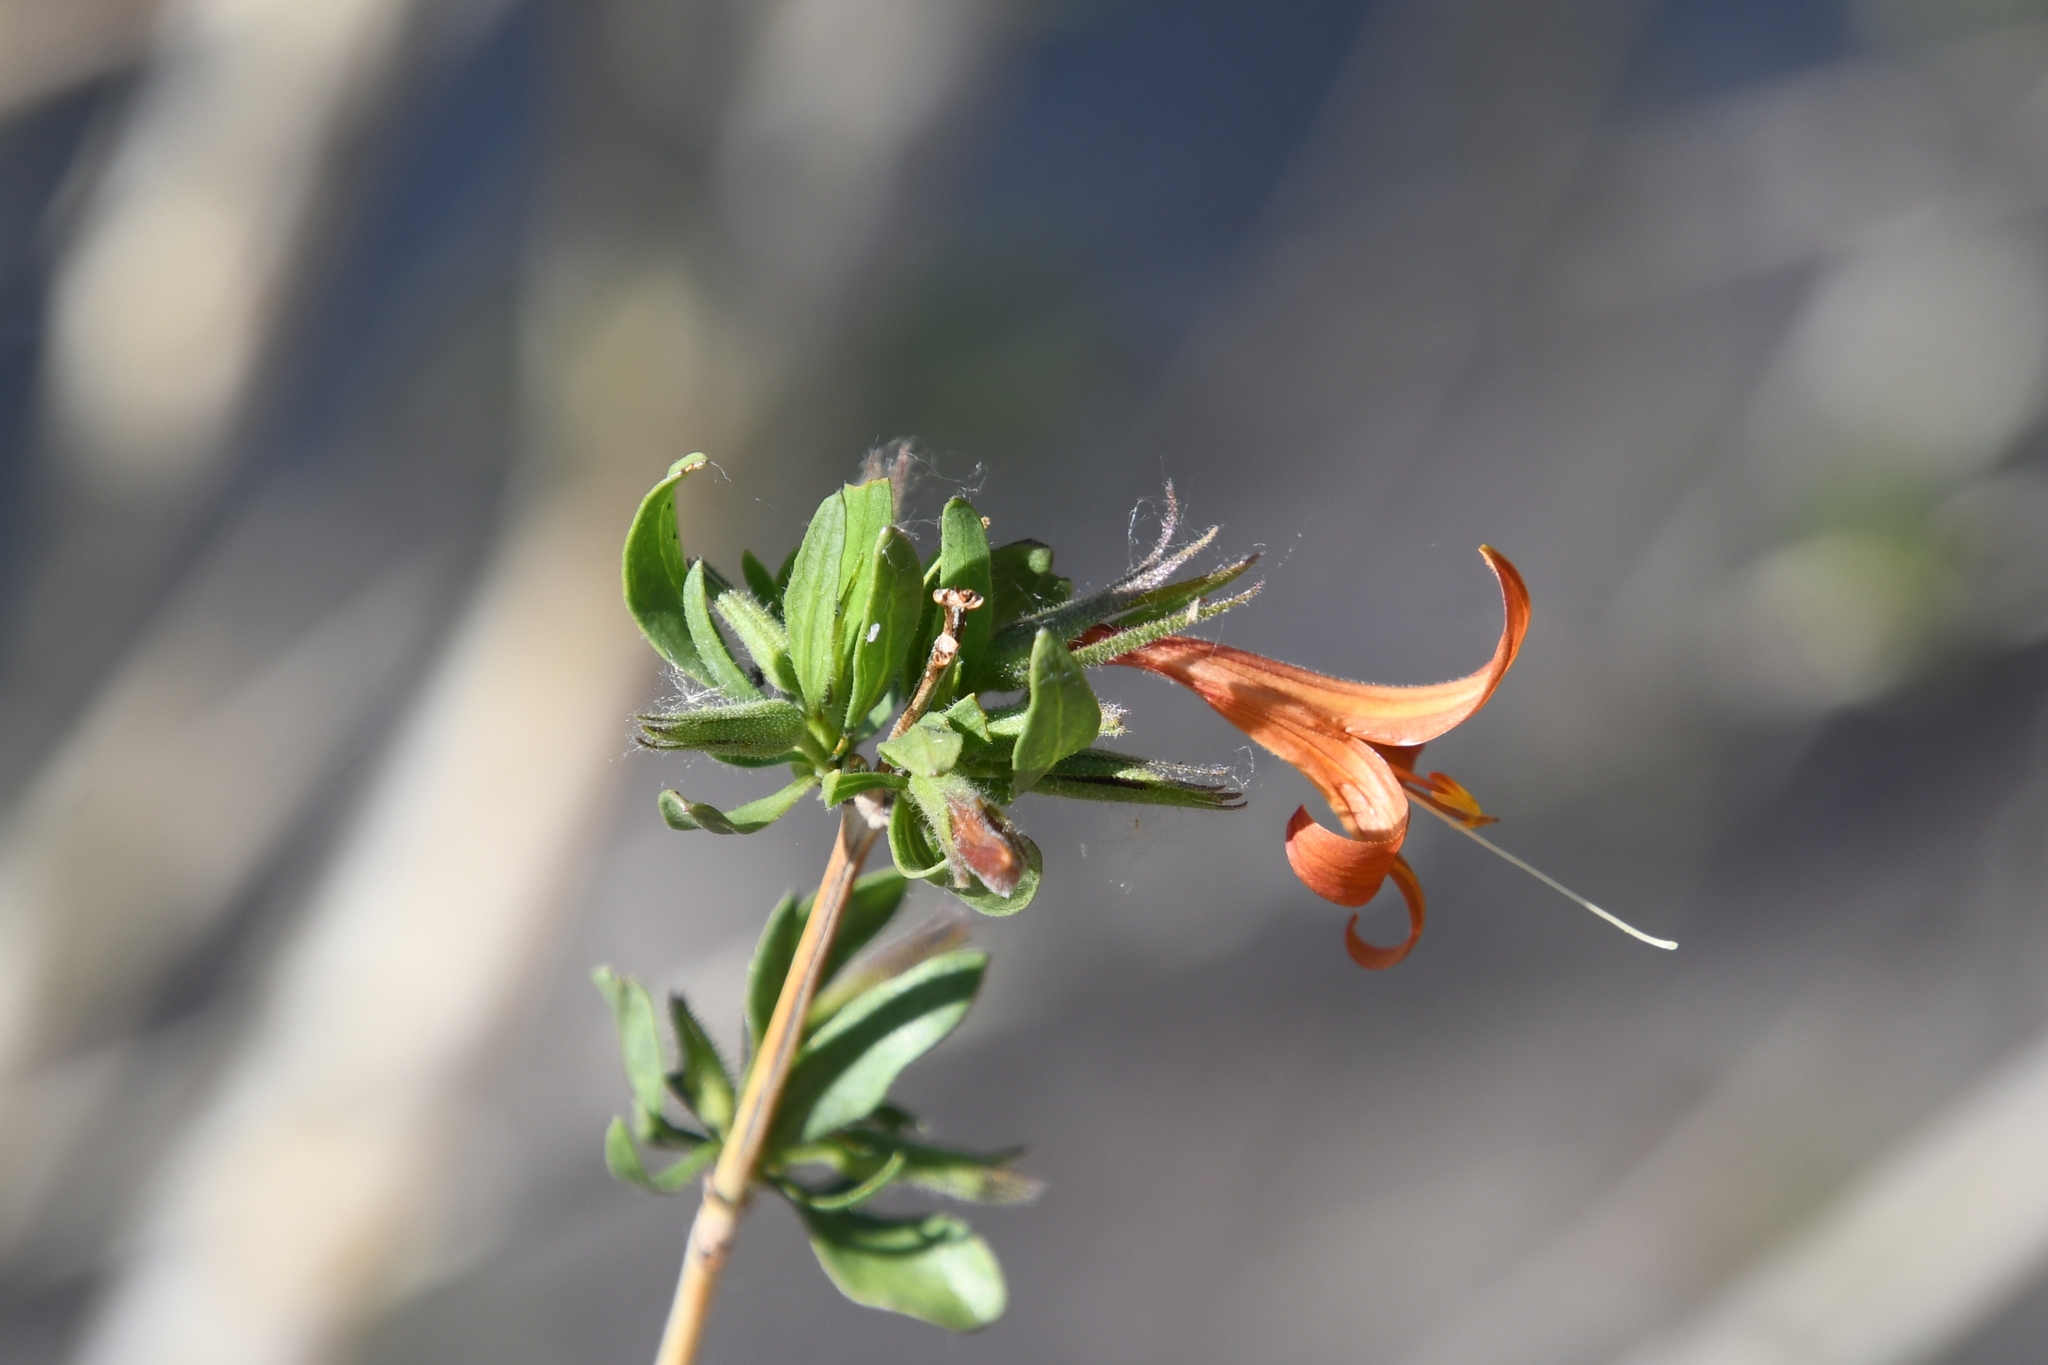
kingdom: Plantae
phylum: Tracheophyta
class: Magnoliopsida
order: Lamiales
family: Acanthaceae
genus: Anisacanthus
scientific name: Anisacanthus thurberi
